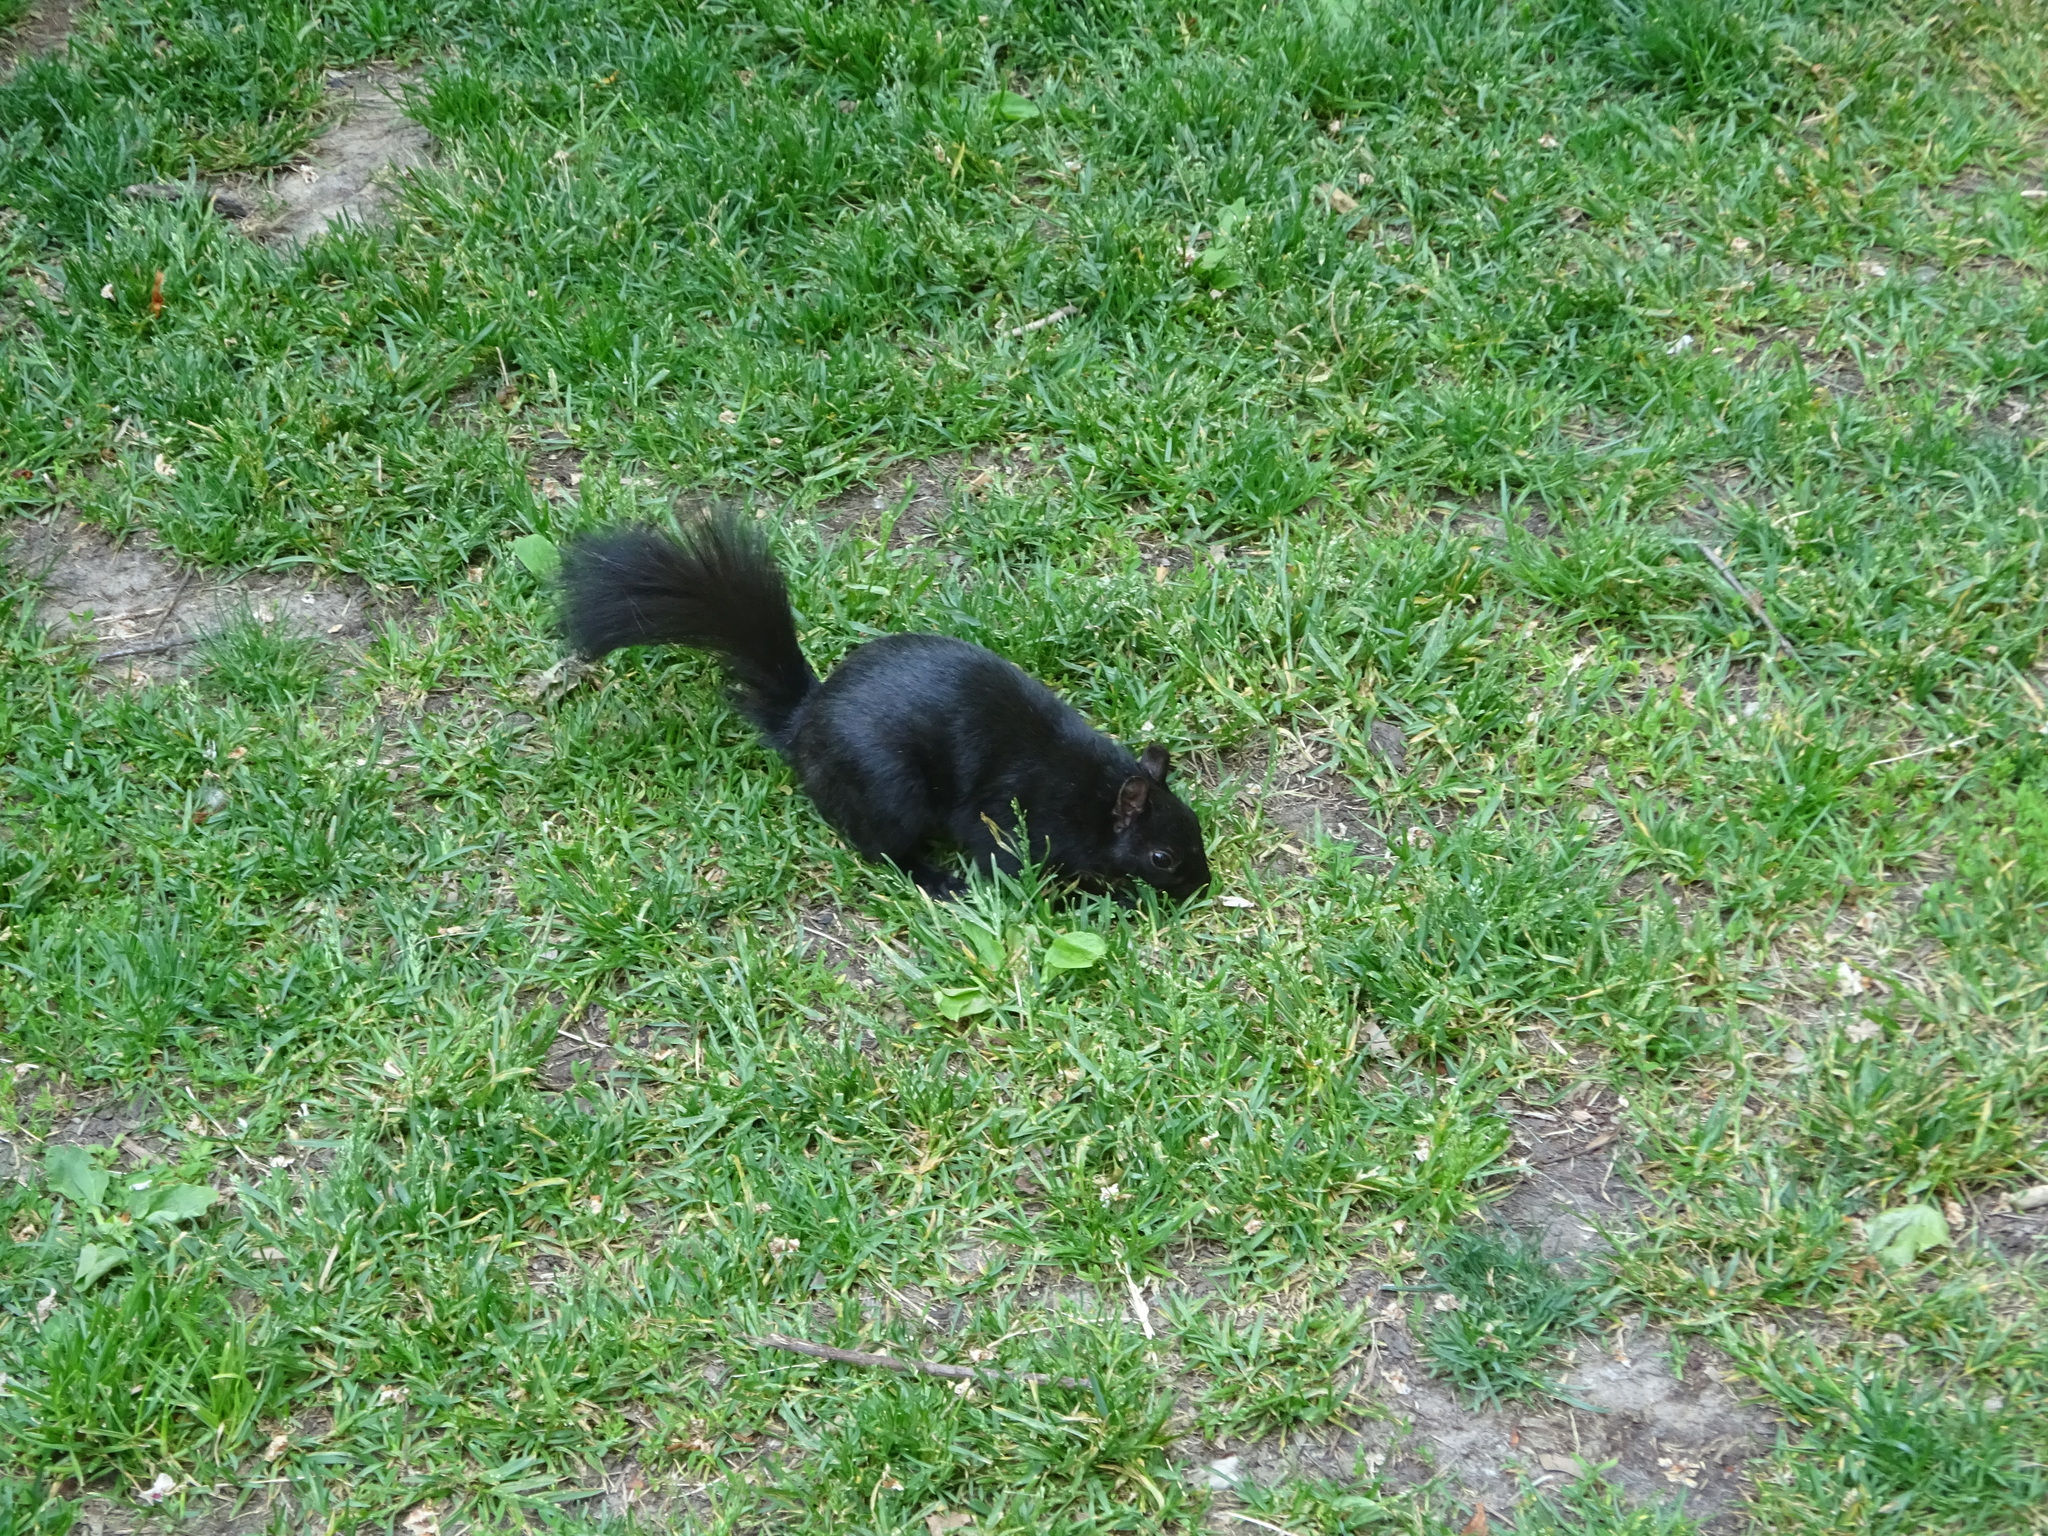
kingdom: Animalia
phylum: Chordata
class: Mammalia
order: Rodentia
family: Sciuridae
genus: Sciurus
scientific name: Sciurus carolinensis
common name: Eastern gray squirrel
